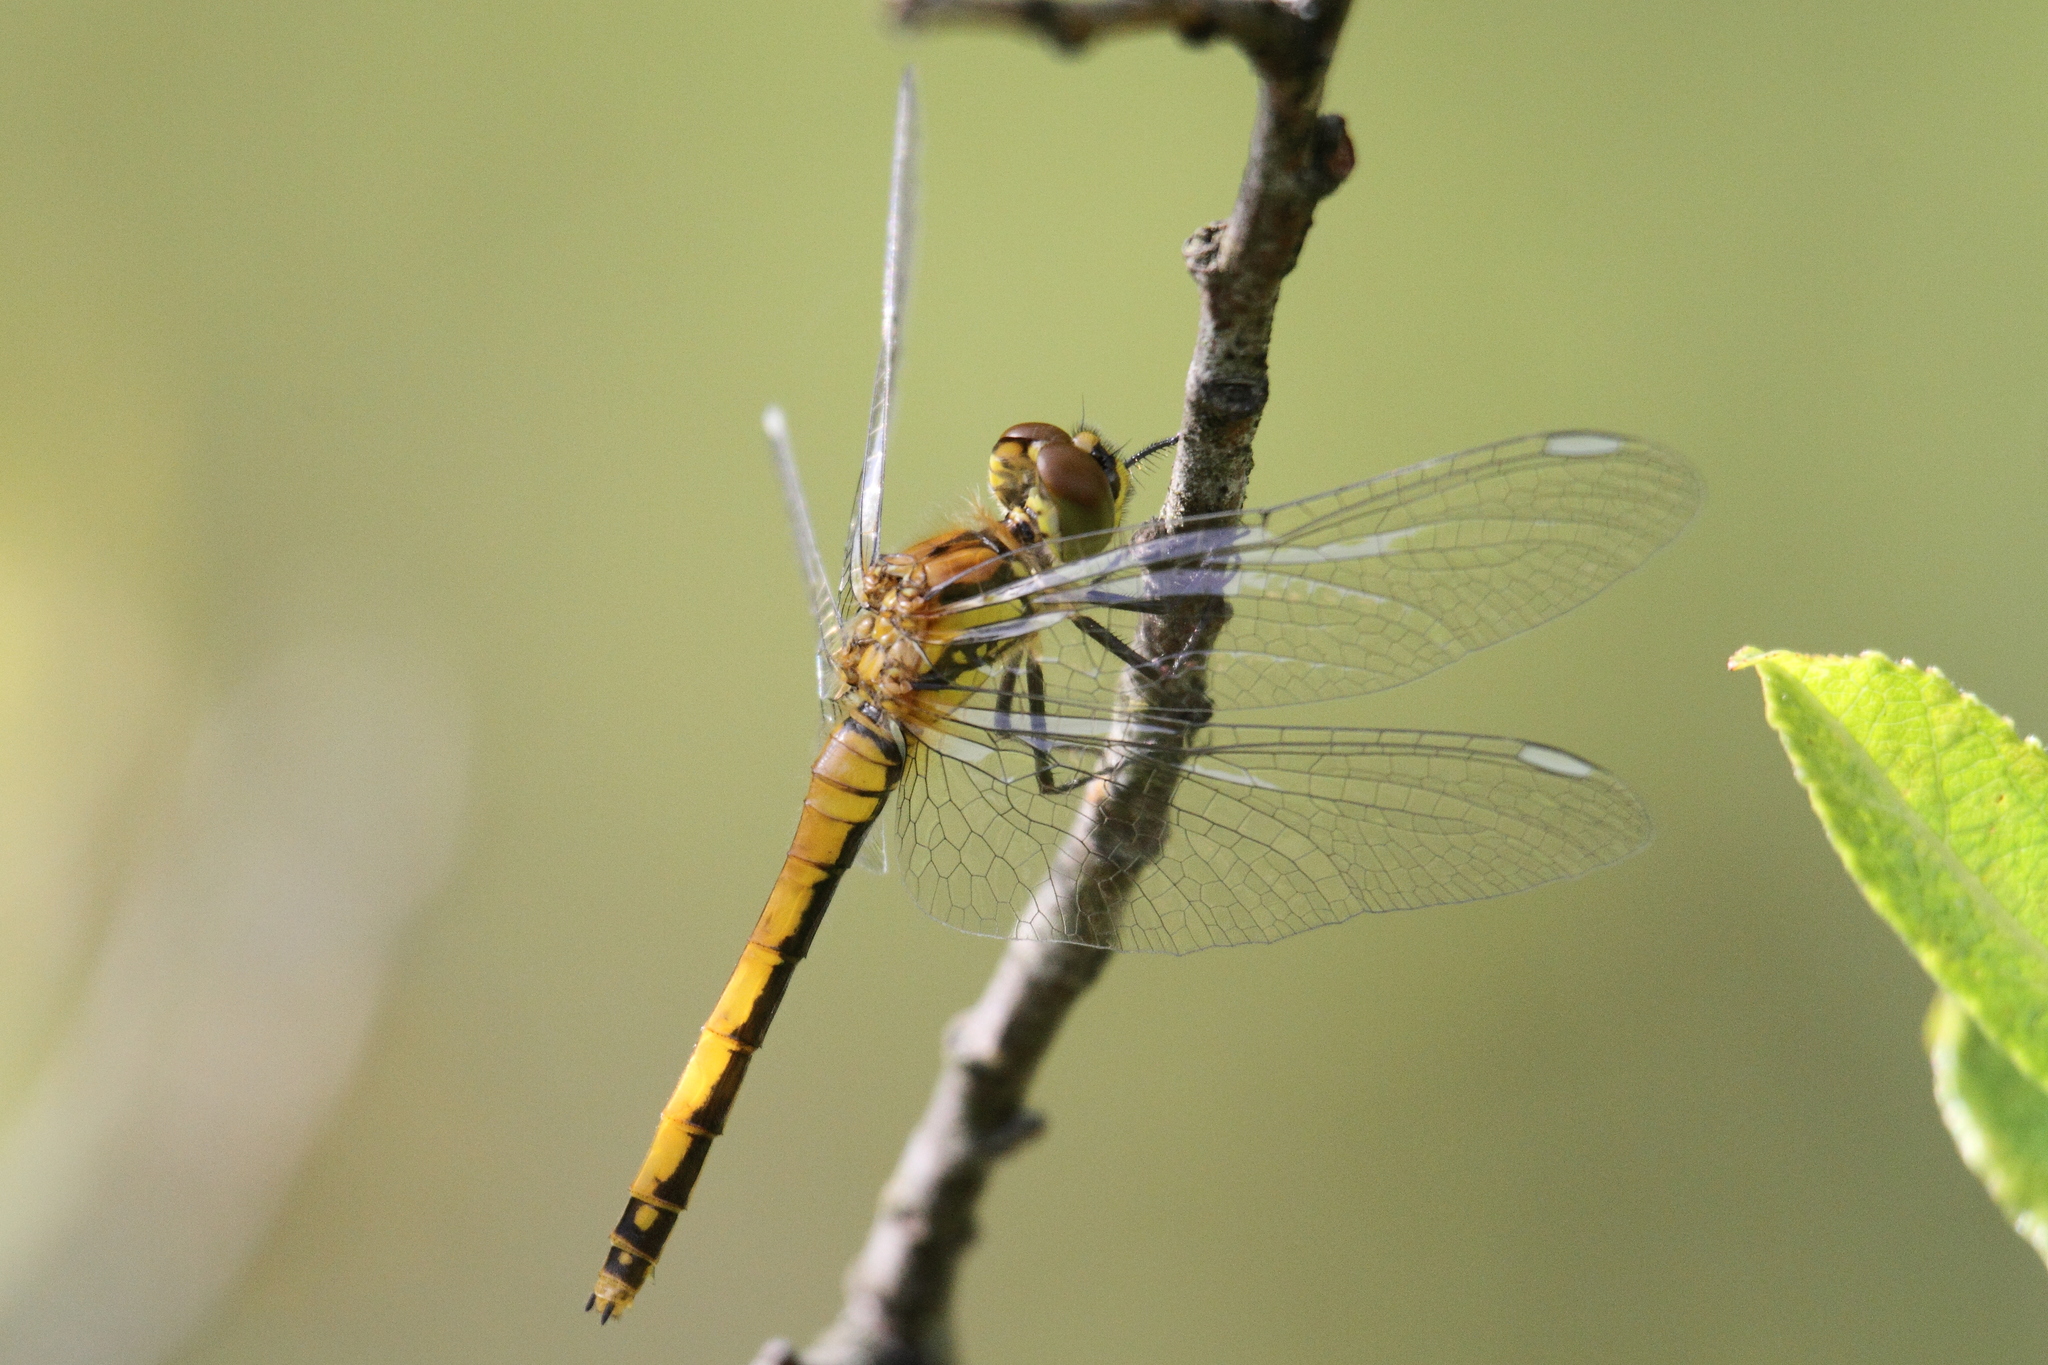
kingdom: Animalia
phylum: Arthropoda
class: Insecta
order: Odonata
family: Libellulidae
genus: Sympetrum
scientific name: Sympetrum danae
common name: Black darter
